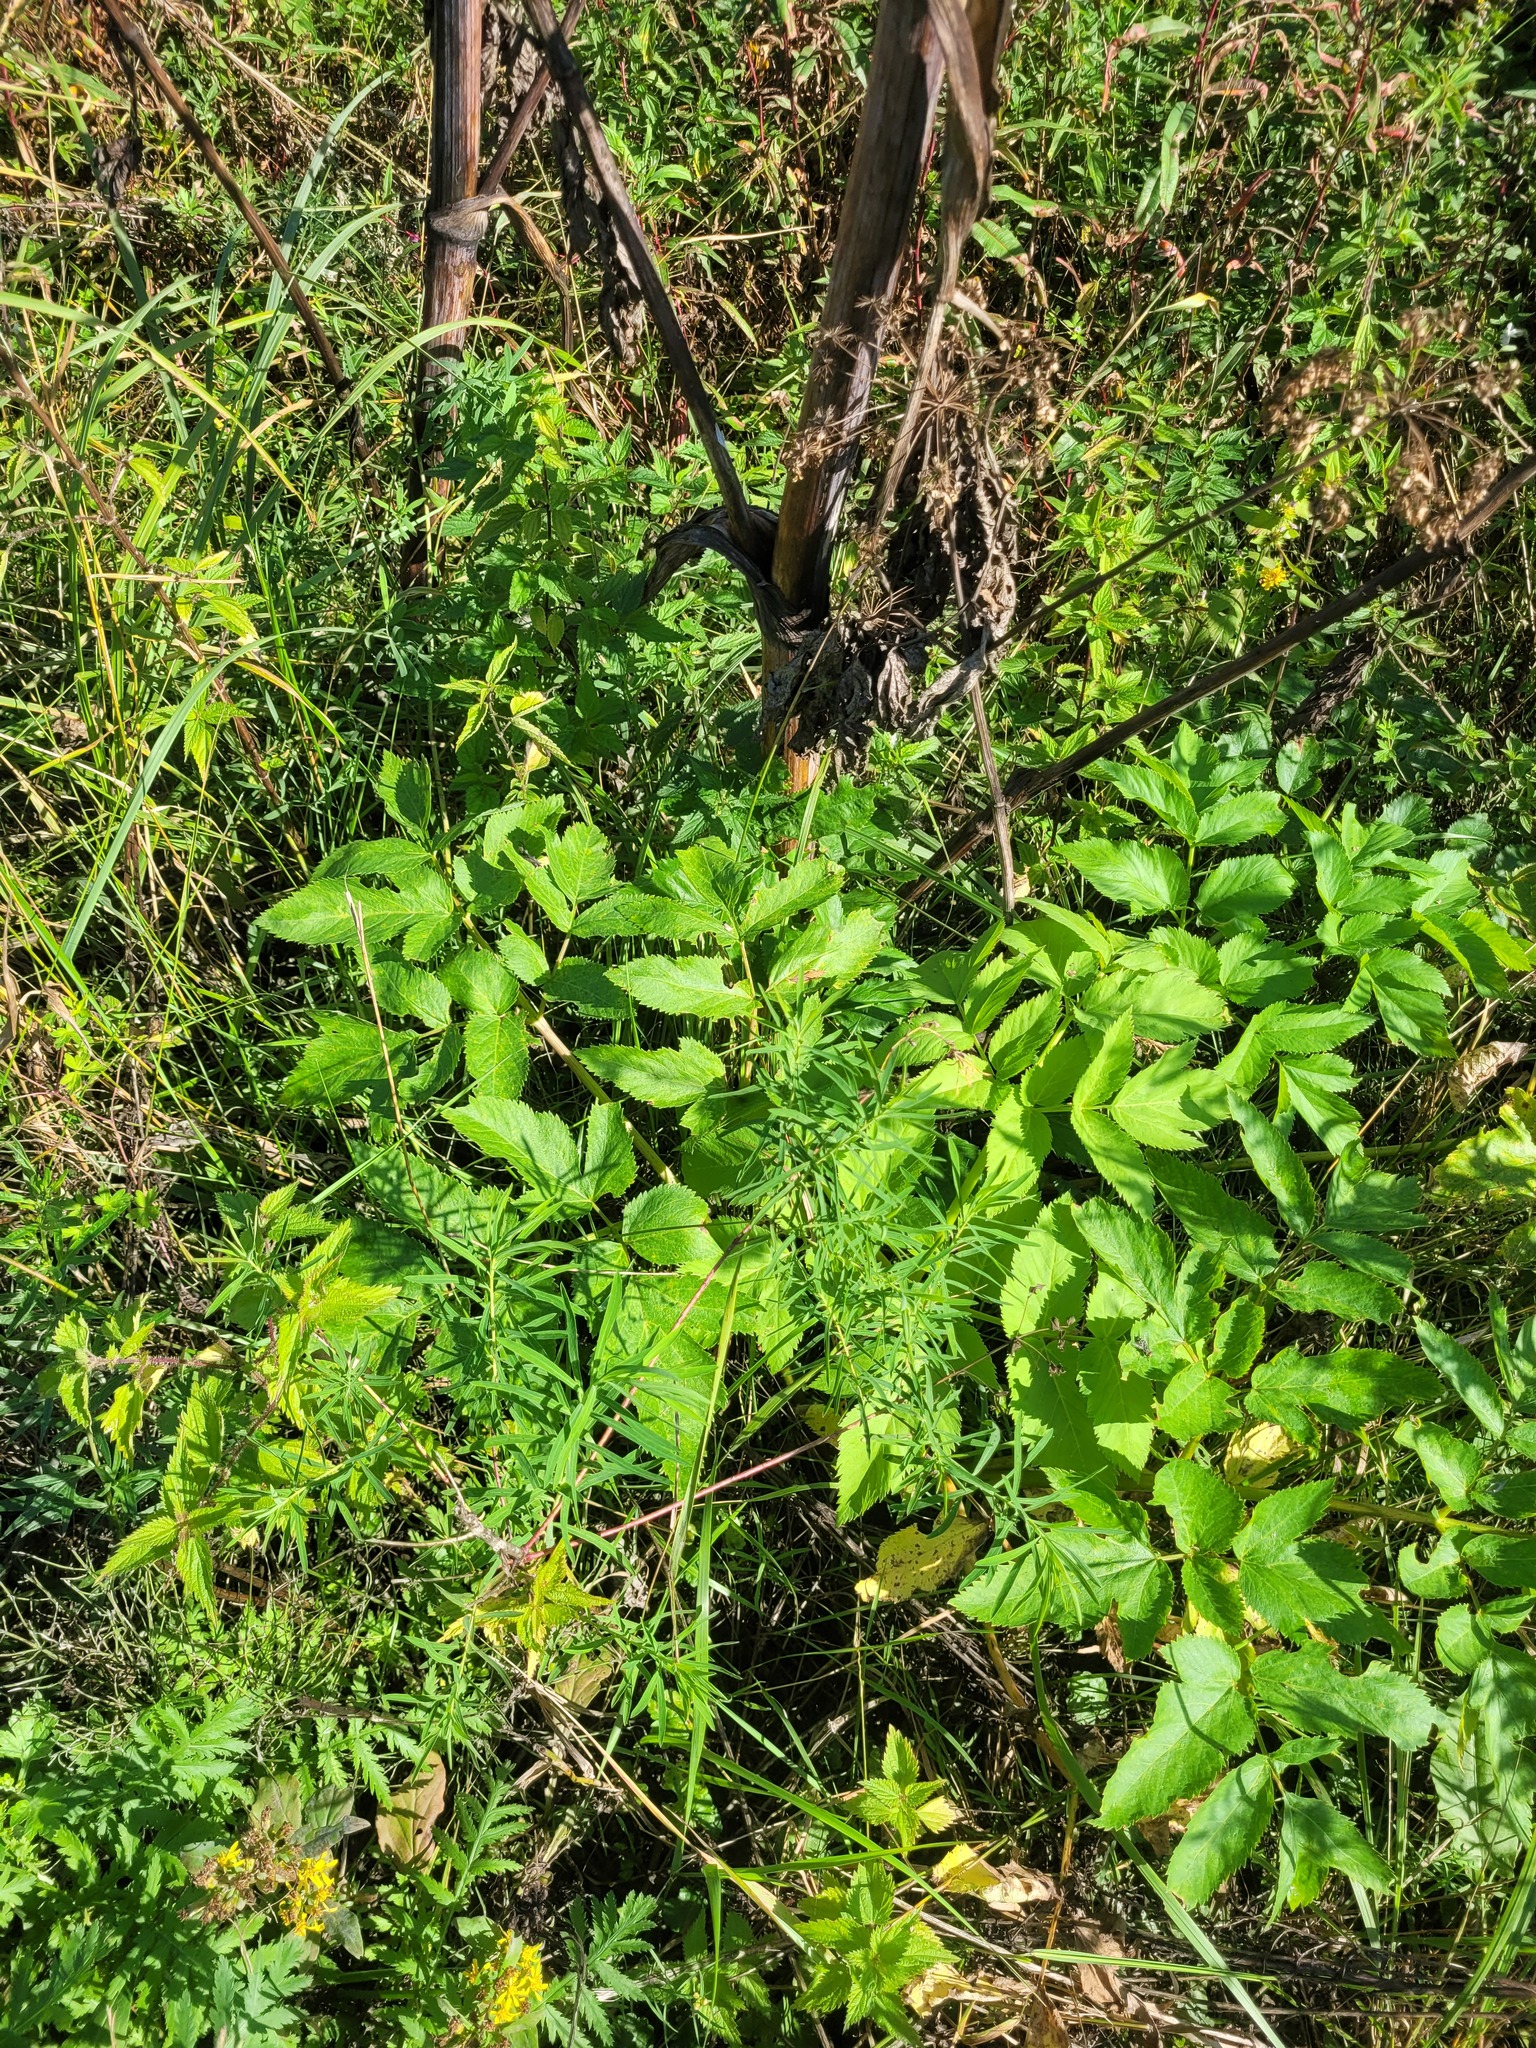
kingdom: Plantae
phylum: Tracheophyta
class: Magnoliopsida
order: Apiales
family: Apiaceae
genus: Angelica
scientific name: Angelica archangelica
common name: Garden angelica
